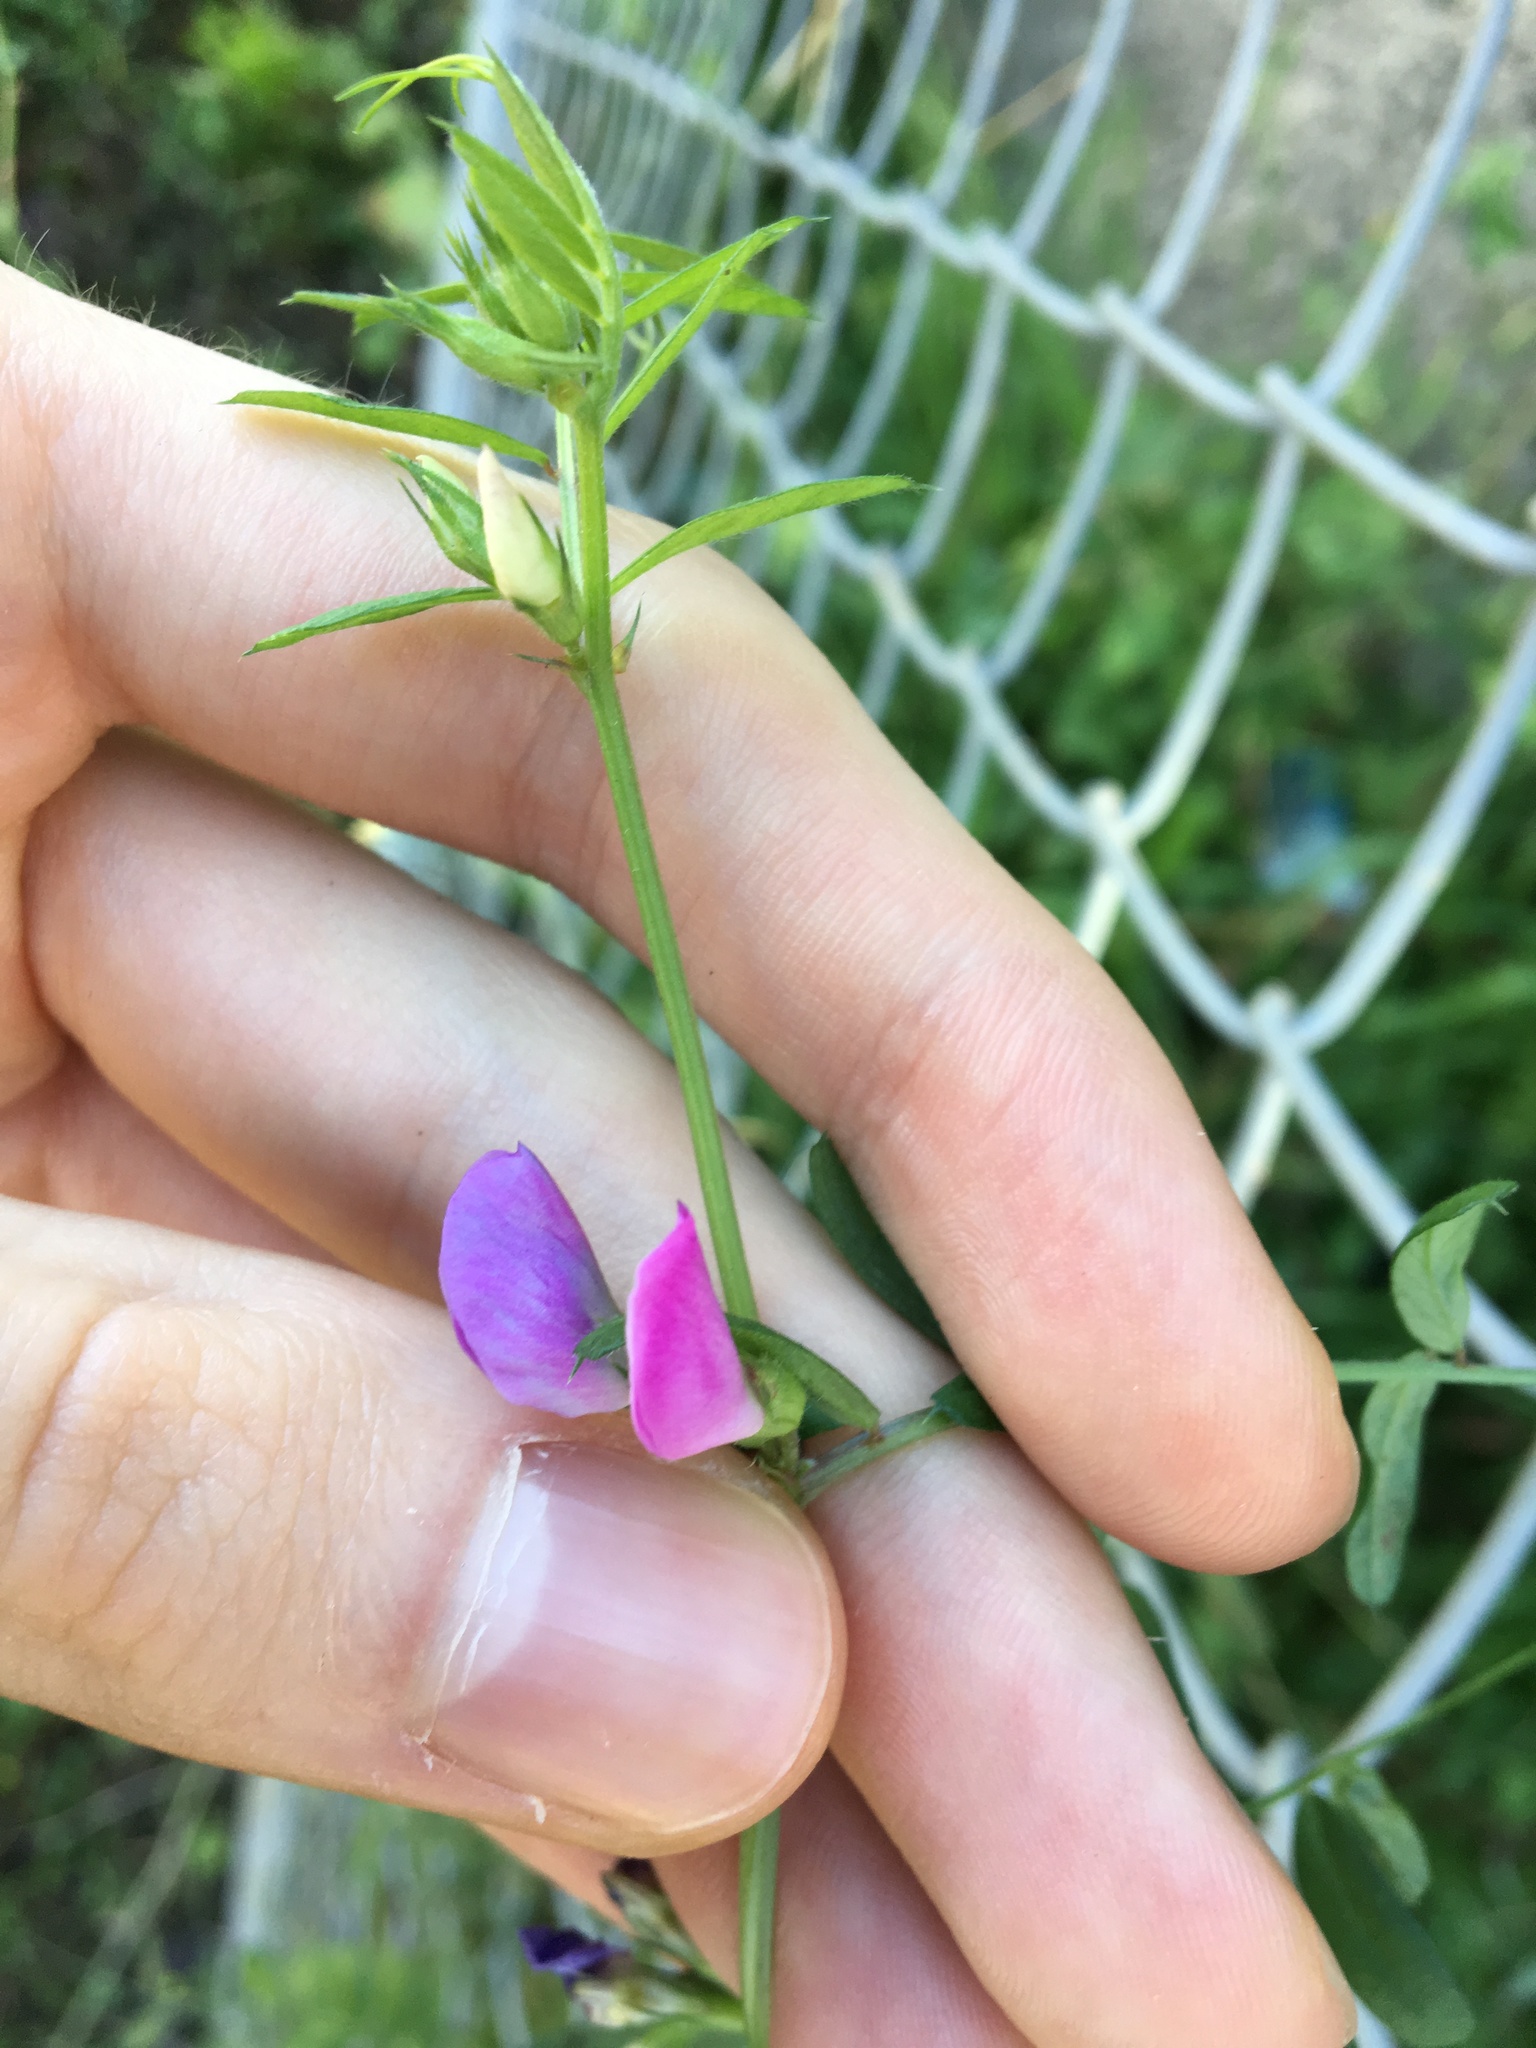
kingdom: Plantae
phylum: Tracheophyta
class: Magnoliopsida
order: Fabales
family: Fabaceae
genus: Vicia
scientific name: Vicia sativa
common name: Garden vetch
